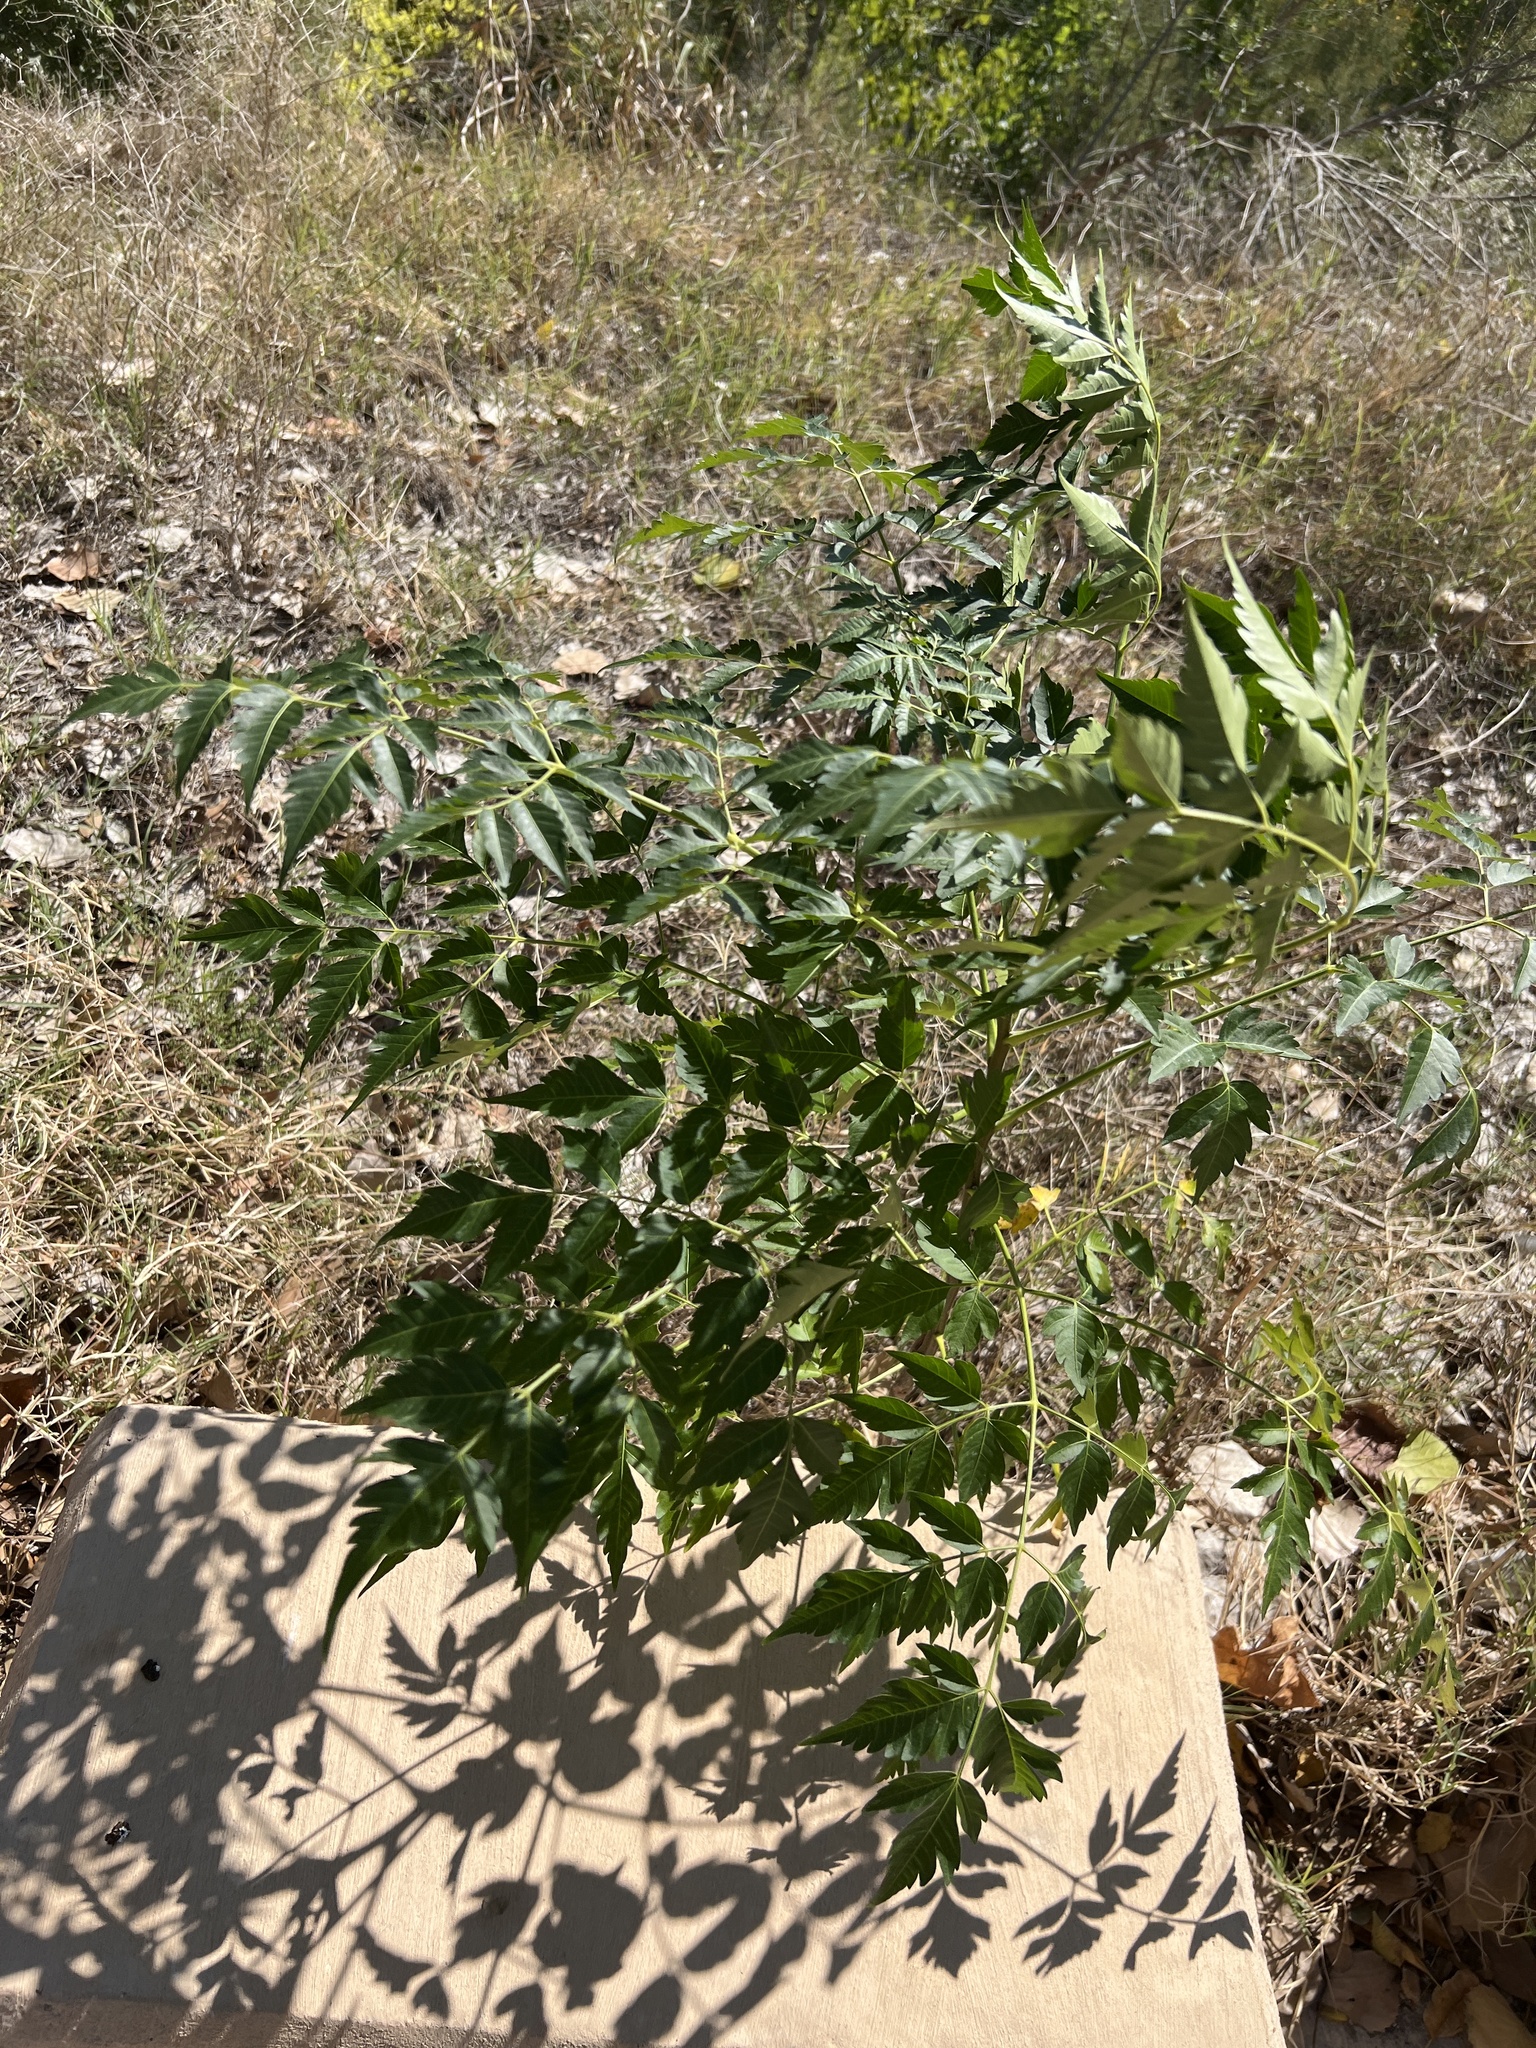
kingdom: Plantae
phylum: Tracheophyta
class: Magnoliopsida
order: Sapindales
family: Meliaceae
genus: Melia
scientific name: Melia azedarach
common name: Chinaberrytree
